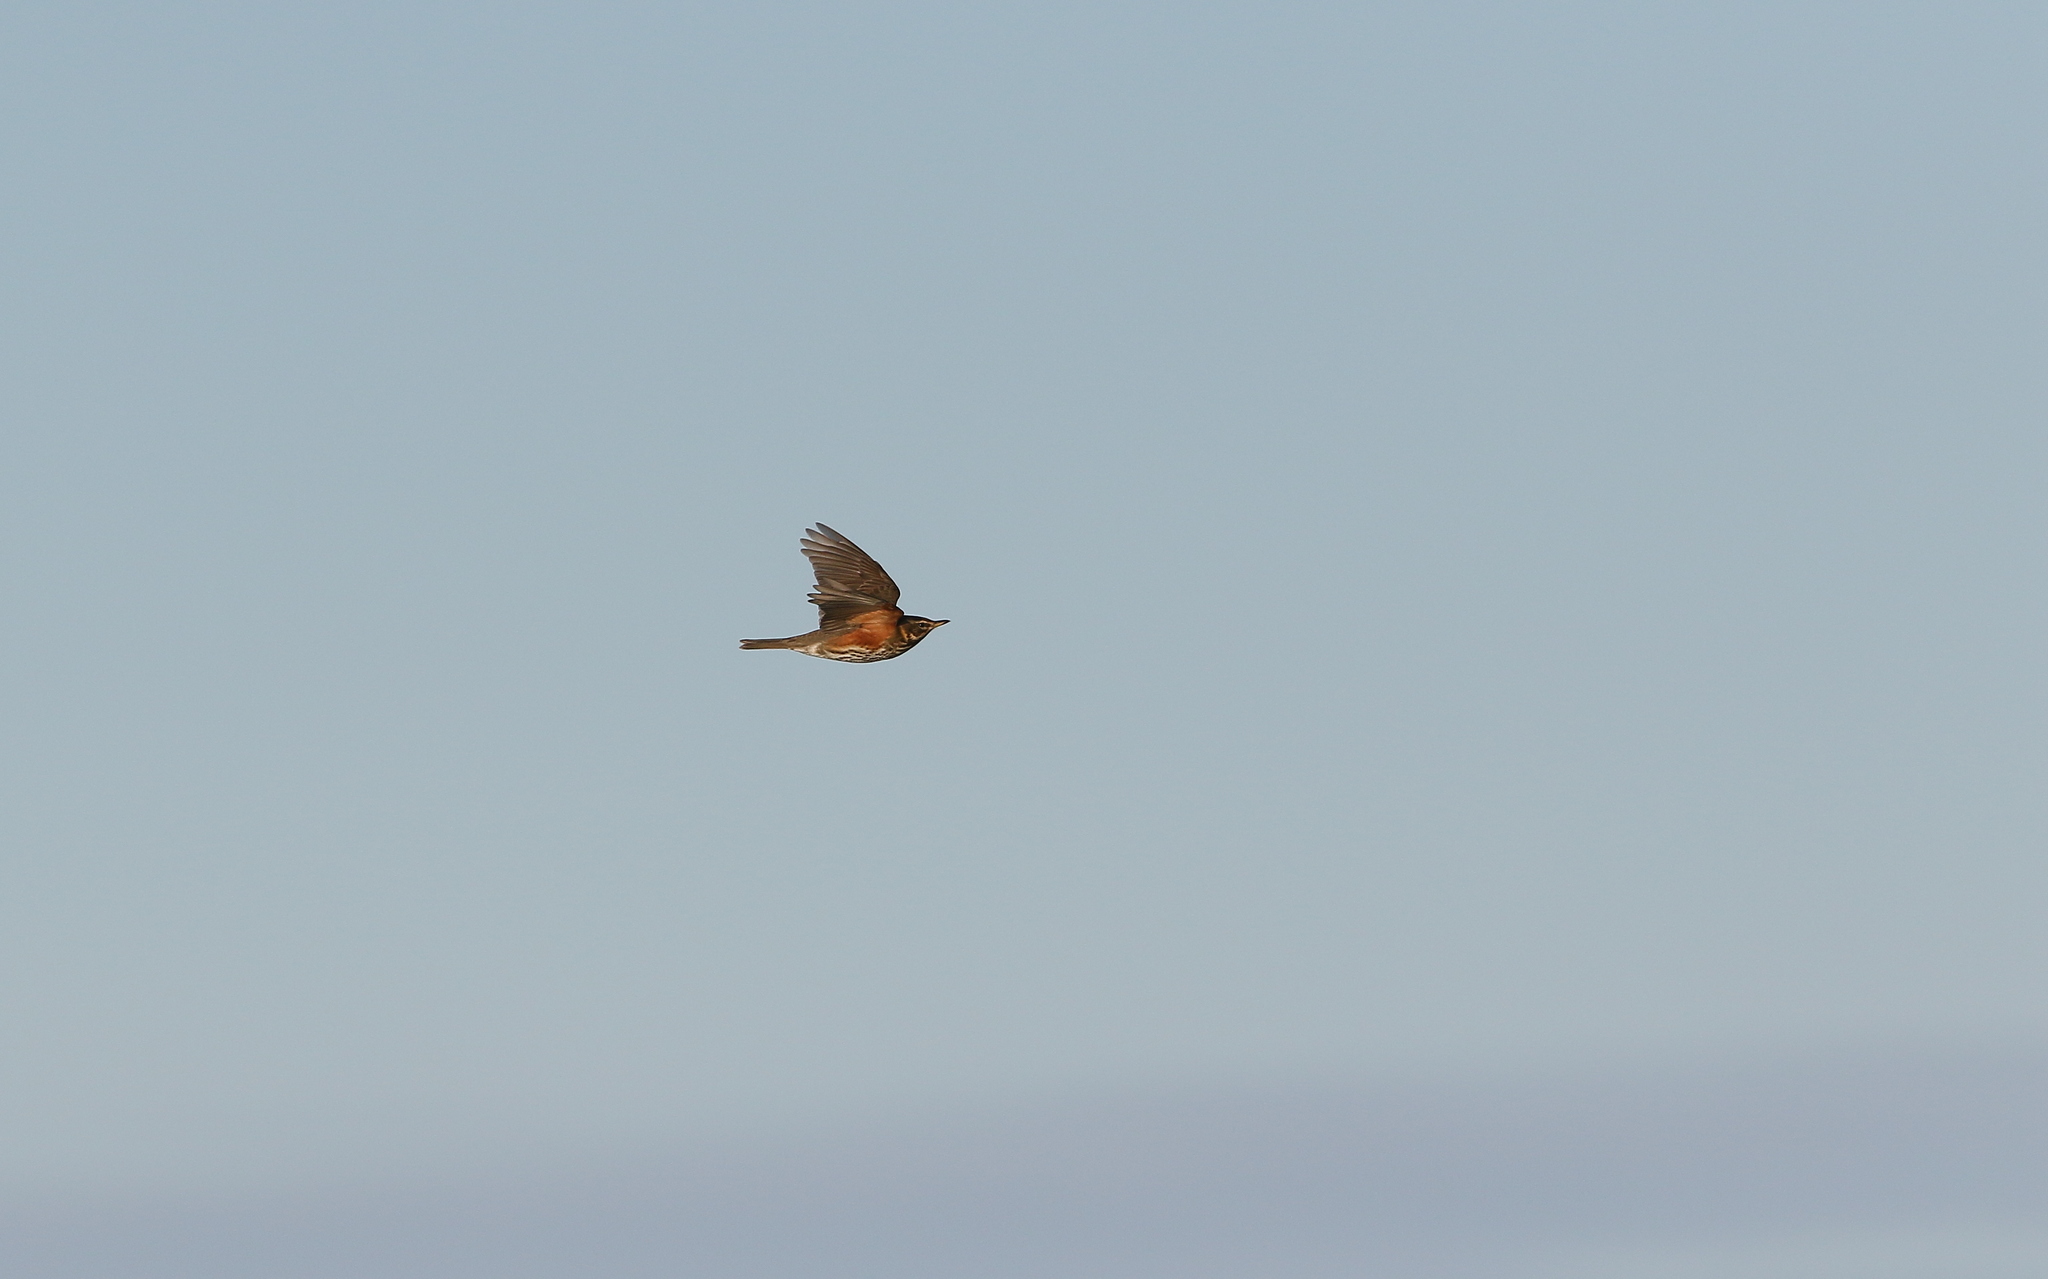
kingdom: Animalia
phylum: Chordata
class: Aves
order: Passeriformes
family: Turdidae
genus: Turdus
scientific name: Turdus iliacus
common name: Redwing
